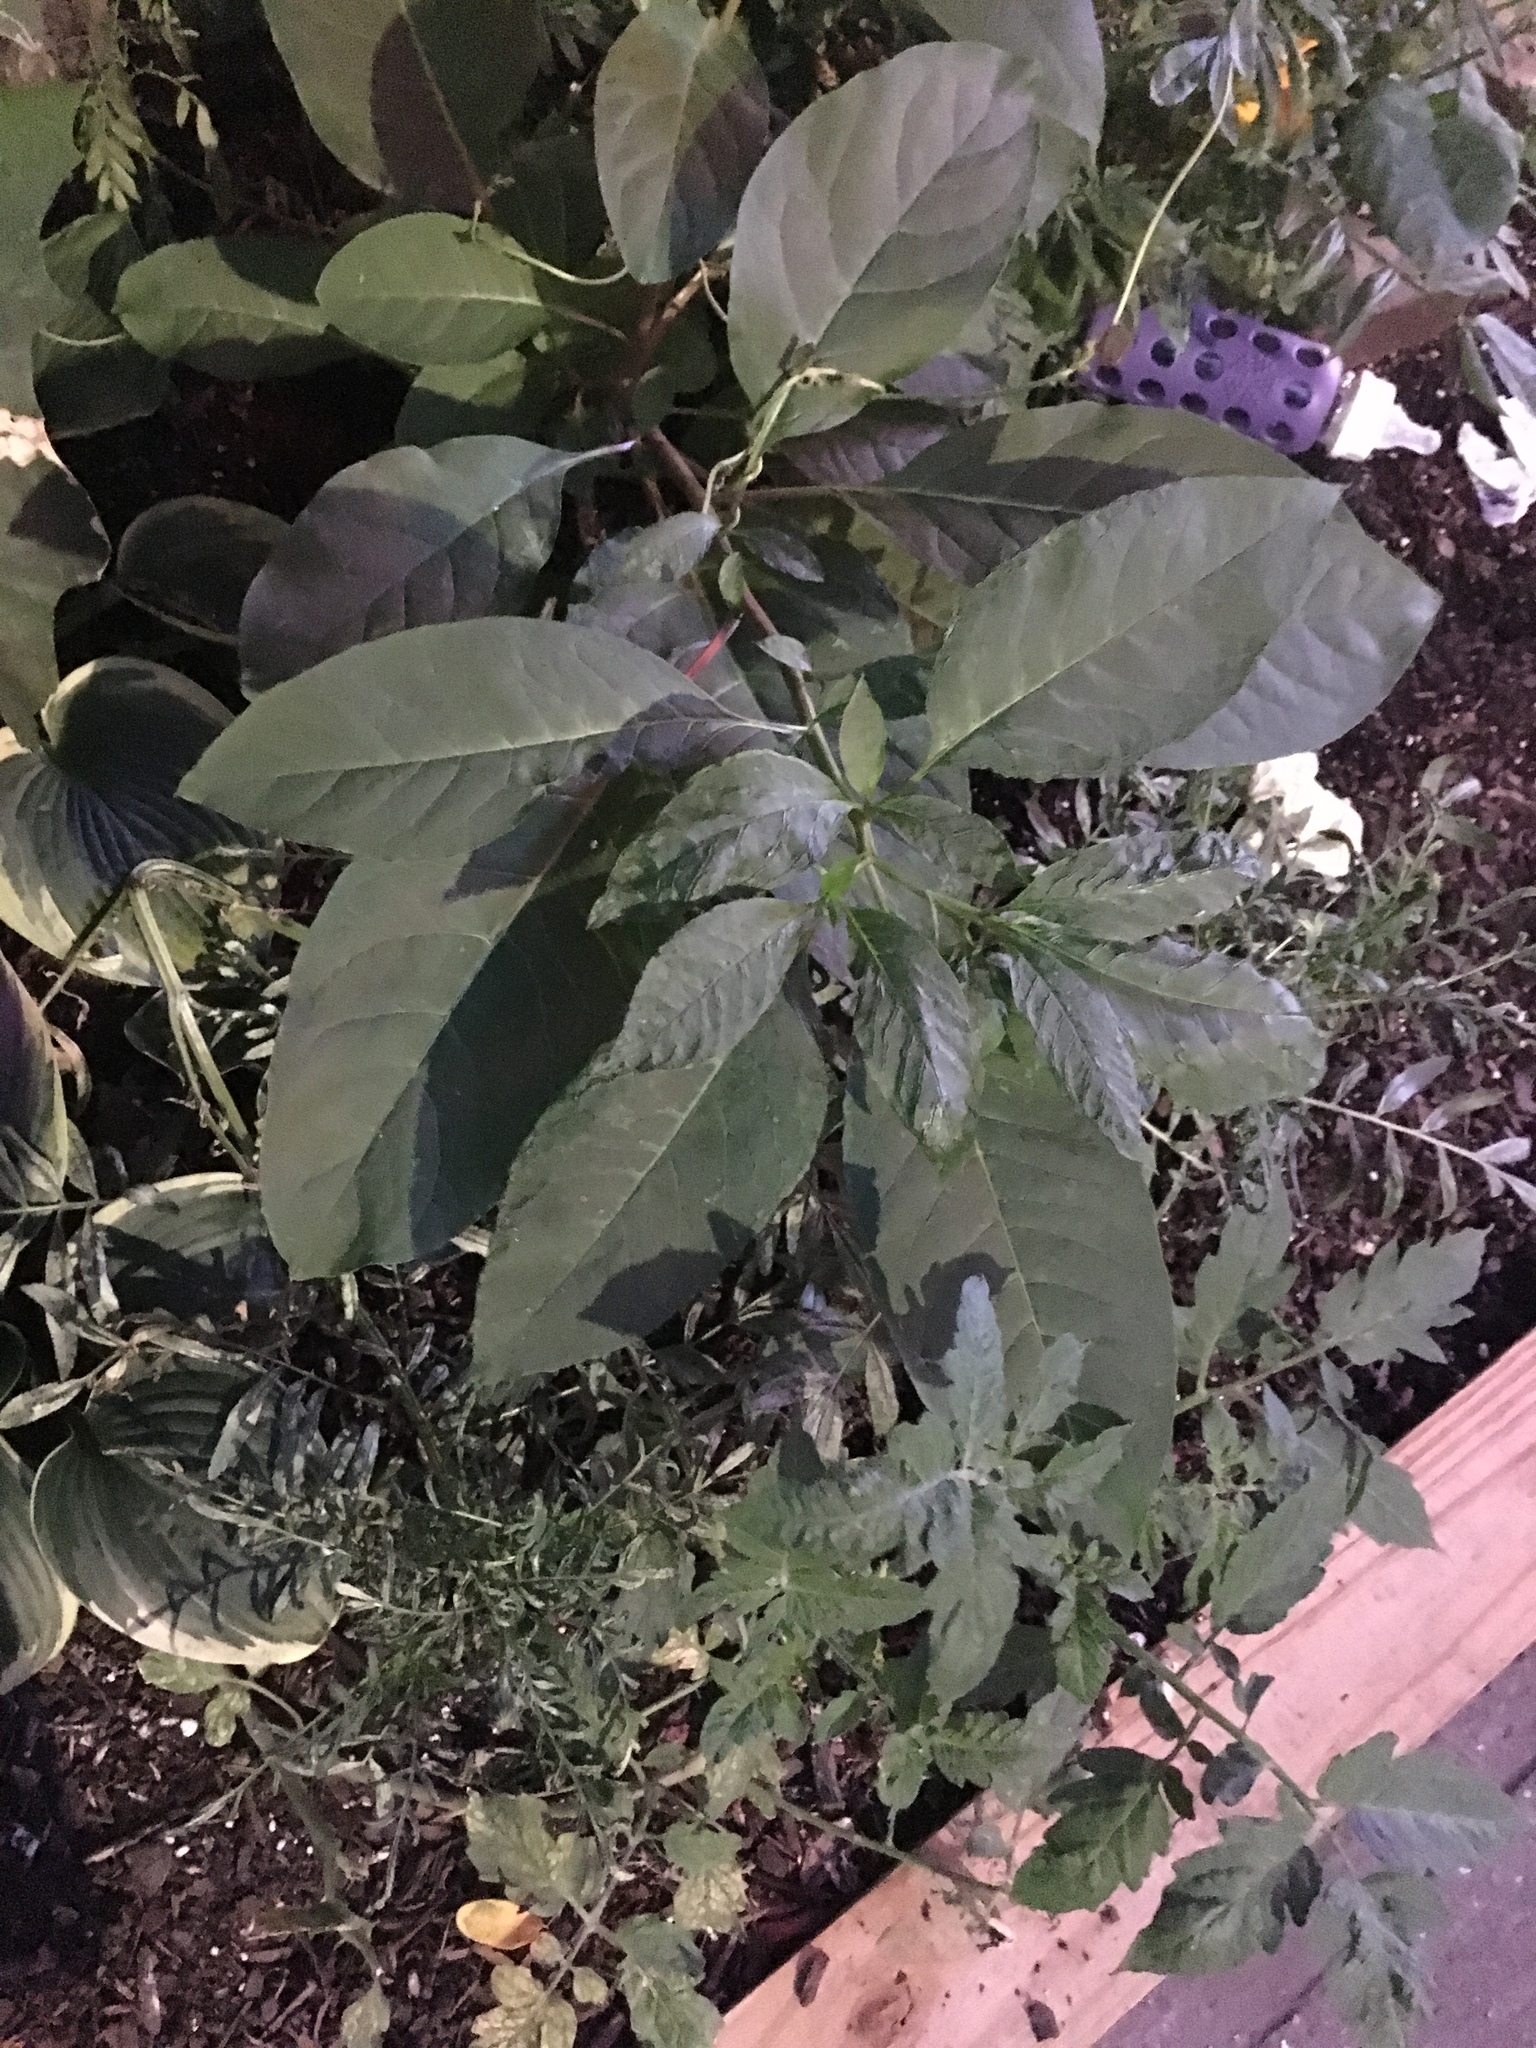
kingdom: Plantae
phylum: Tracheophyta
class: Magnoliopsida
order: Caryophyllales
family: Phytolaccaceae
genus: Phytolacca
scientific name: Phytolacca americana
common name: American pokeweed
